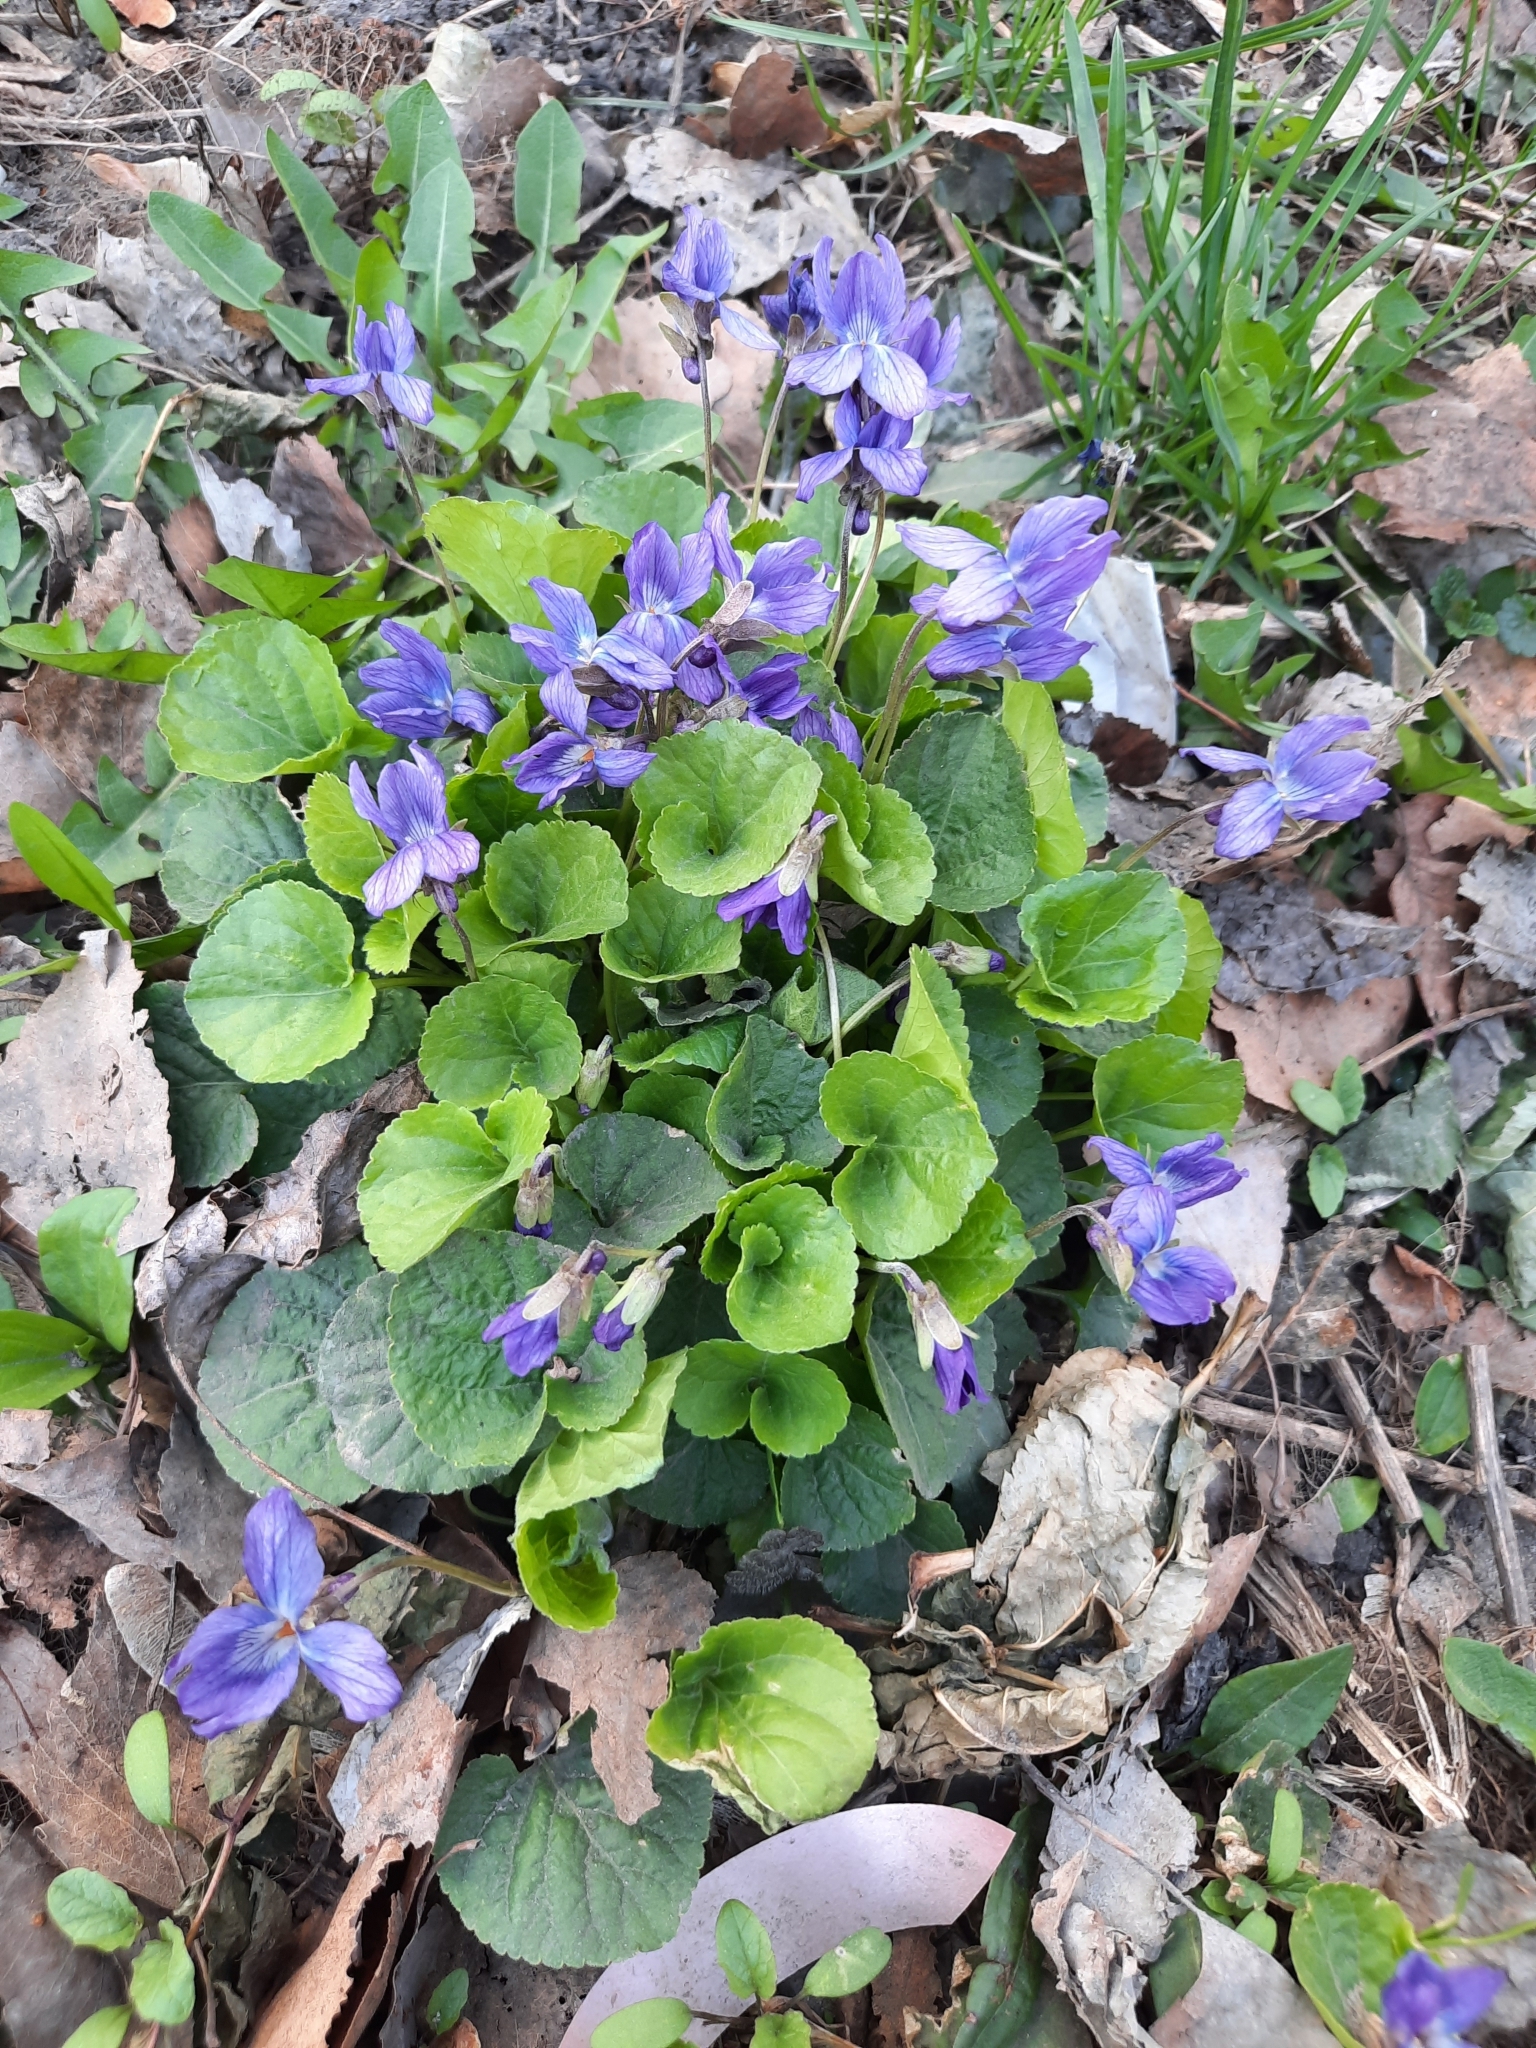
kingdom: Plantae
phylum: Tracheophyta
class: Magnoliopsida
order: Malpighiales
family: Violaceae
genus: Viola
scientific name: Viola odorata
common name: Sweet violet
